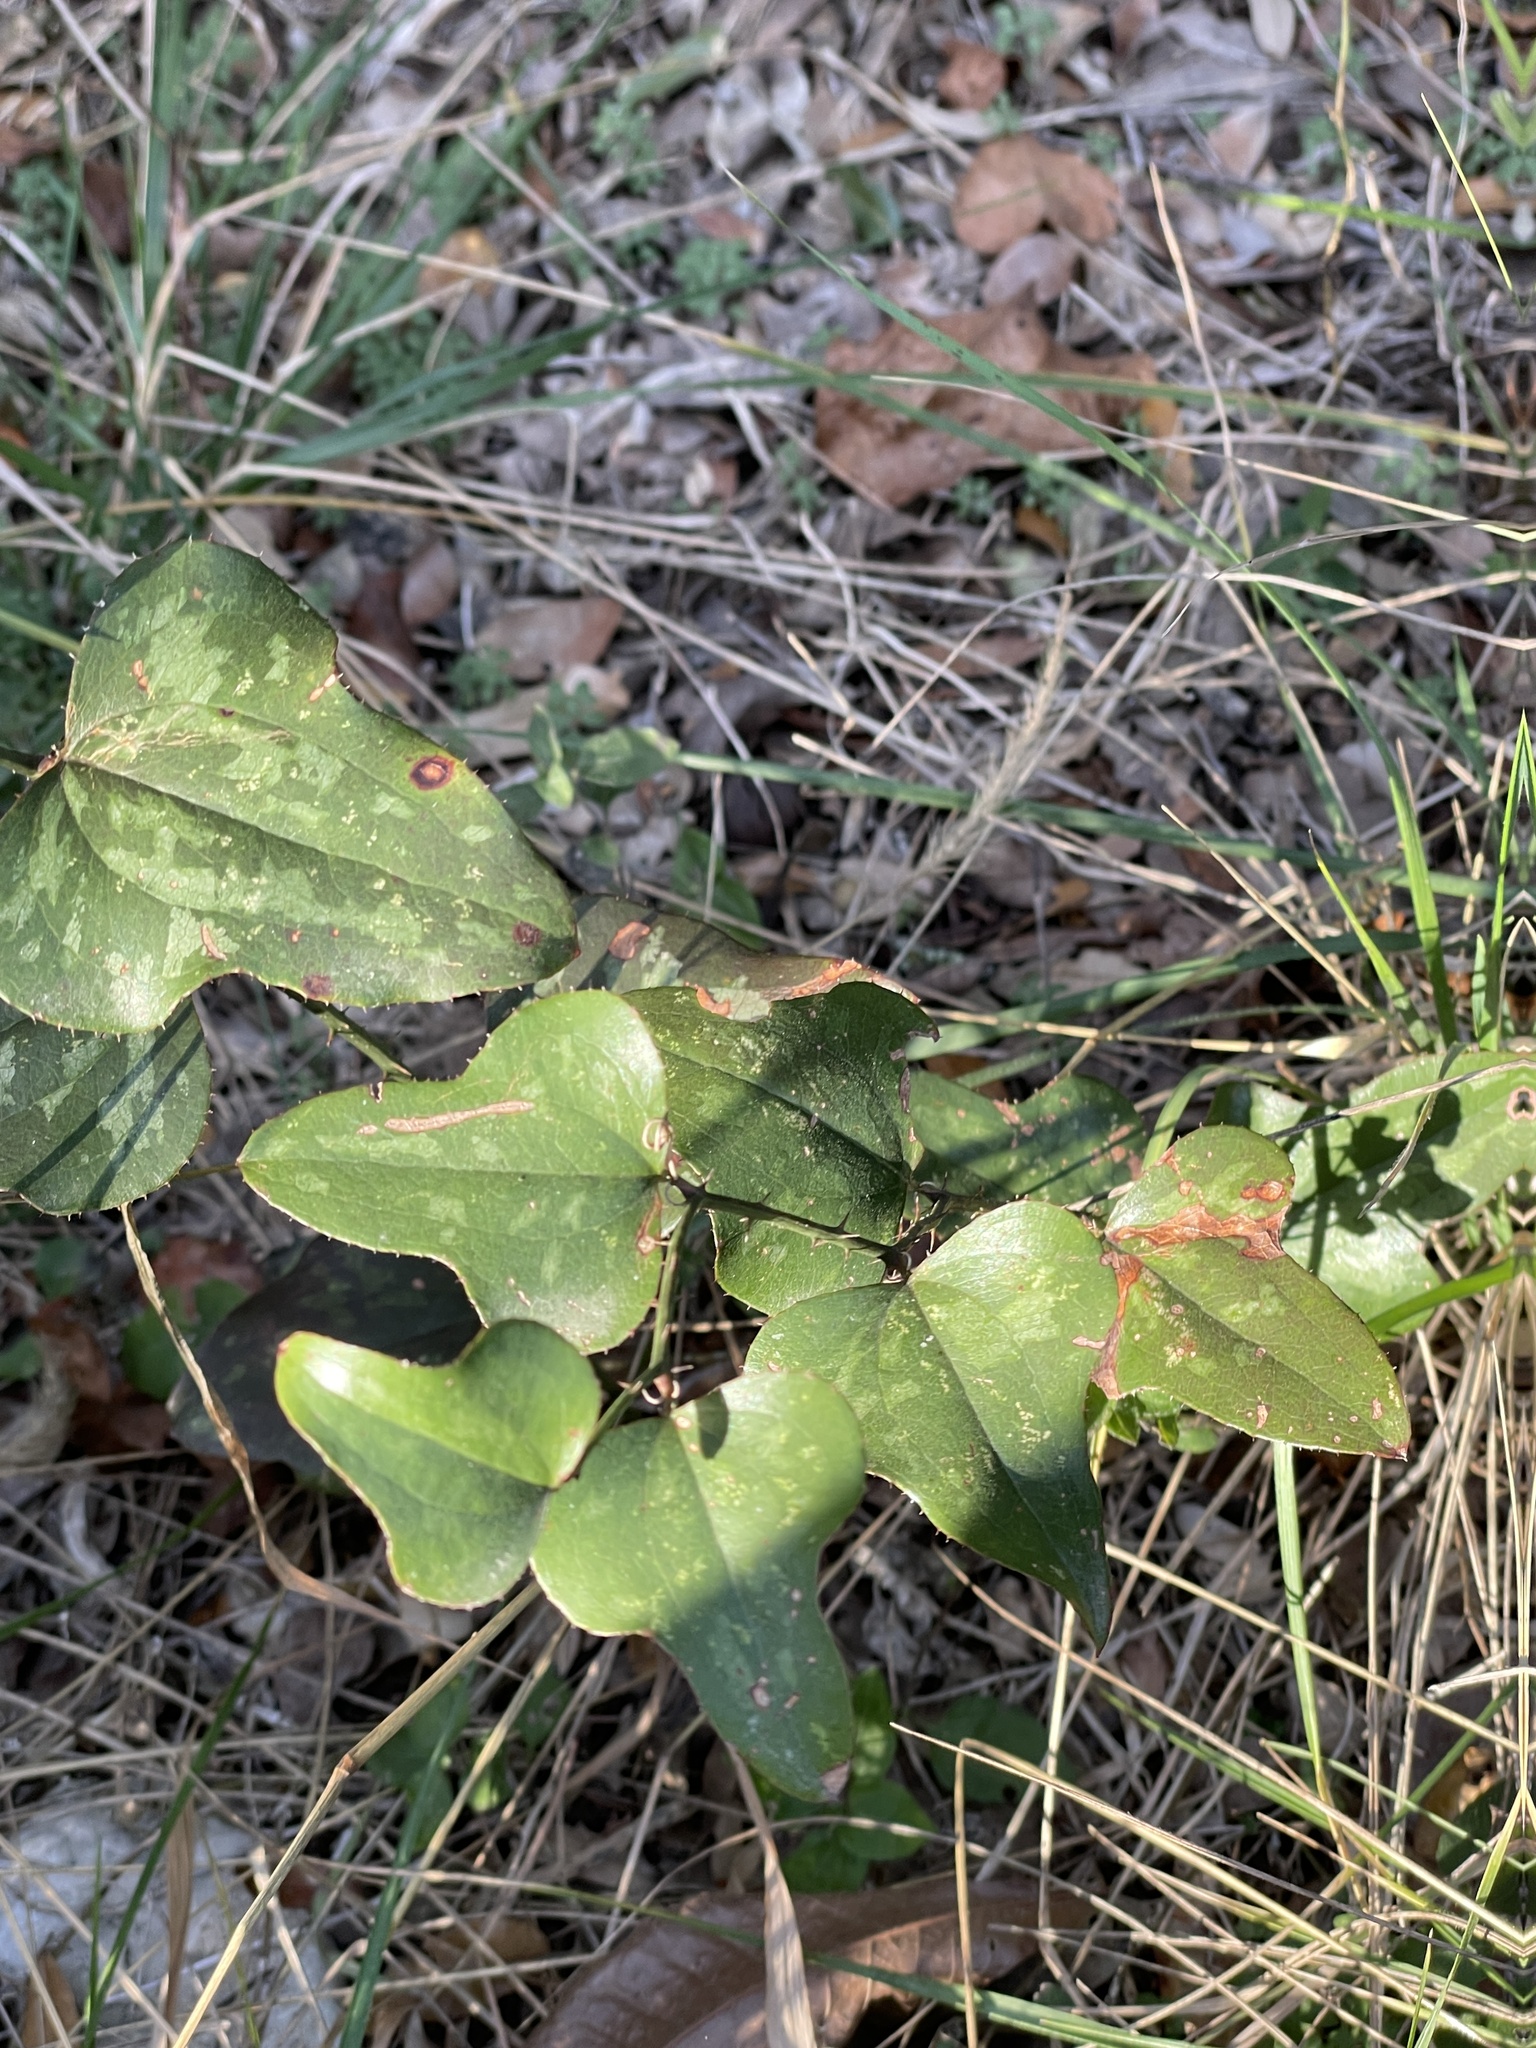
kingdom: Plantae
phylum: Tracheophyta
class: Liliopsida
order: Liliales
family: Smilacaceae
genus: Smilax
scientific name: Smilax bona-nox
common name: Catbrier
